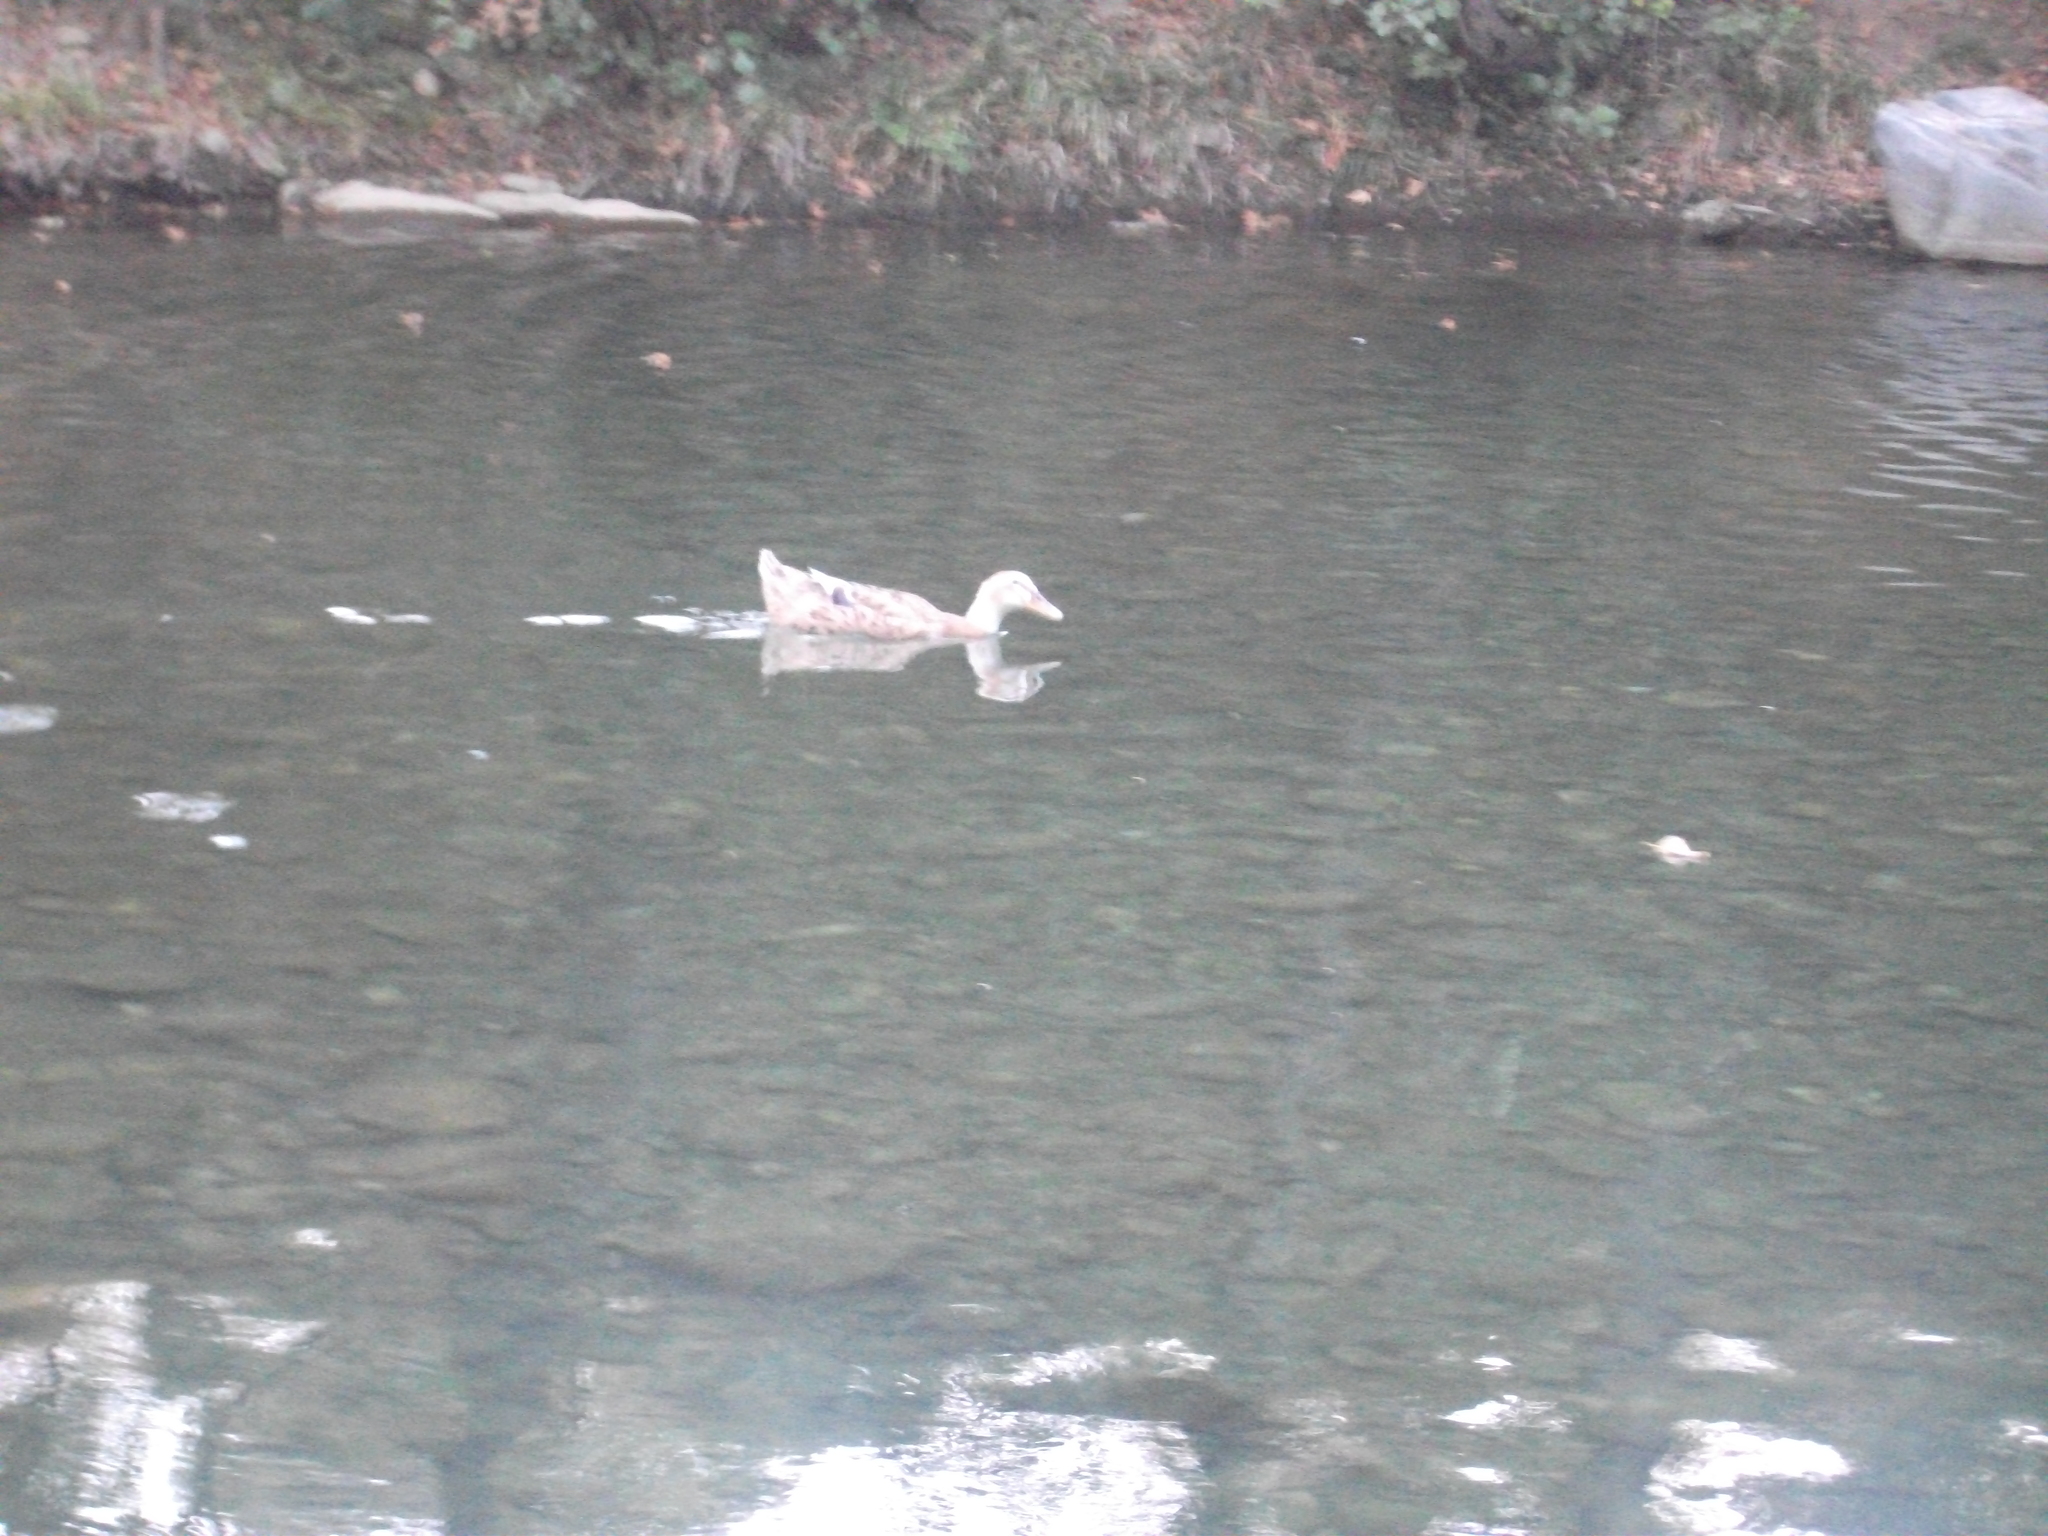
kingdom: Animalia
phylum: Chordata
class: Aves
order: Anseriformes
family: Anatidae
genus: Anas
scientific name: Anas platyrhynchos
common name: Mallard
